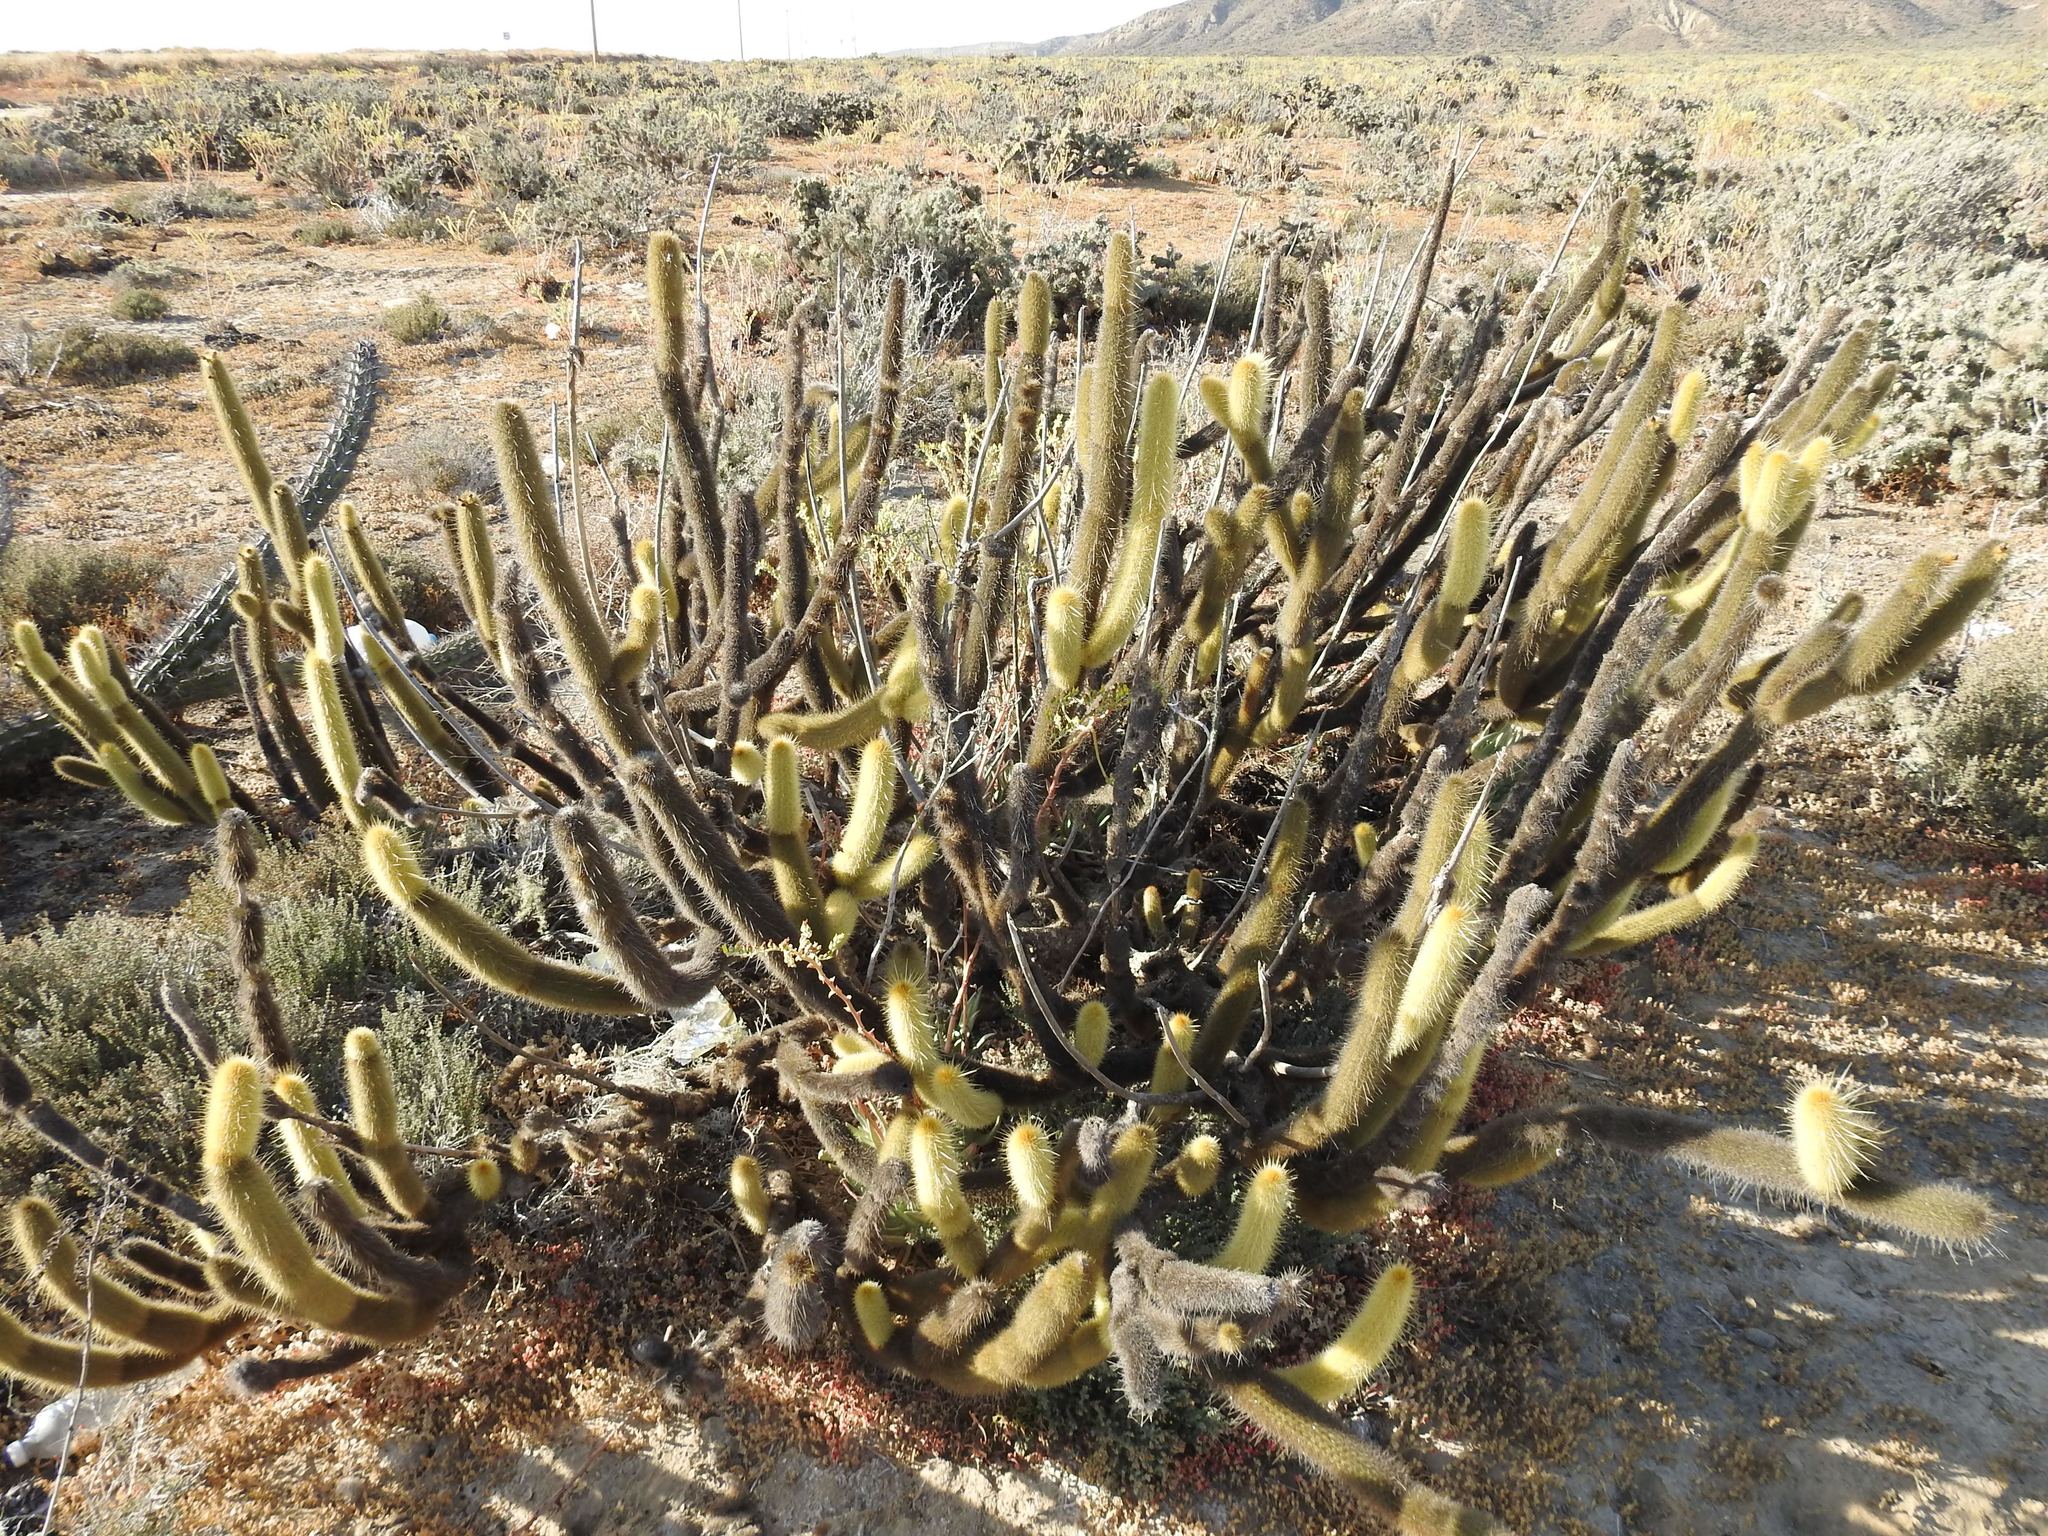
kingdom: Plantae
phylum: Tracheophyta
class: Magnoliopsida
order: Caryophyllales
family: Cactaceae
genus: Bergerocactus
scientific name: Bergerocactus emoryi
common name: Golden snakecactus
